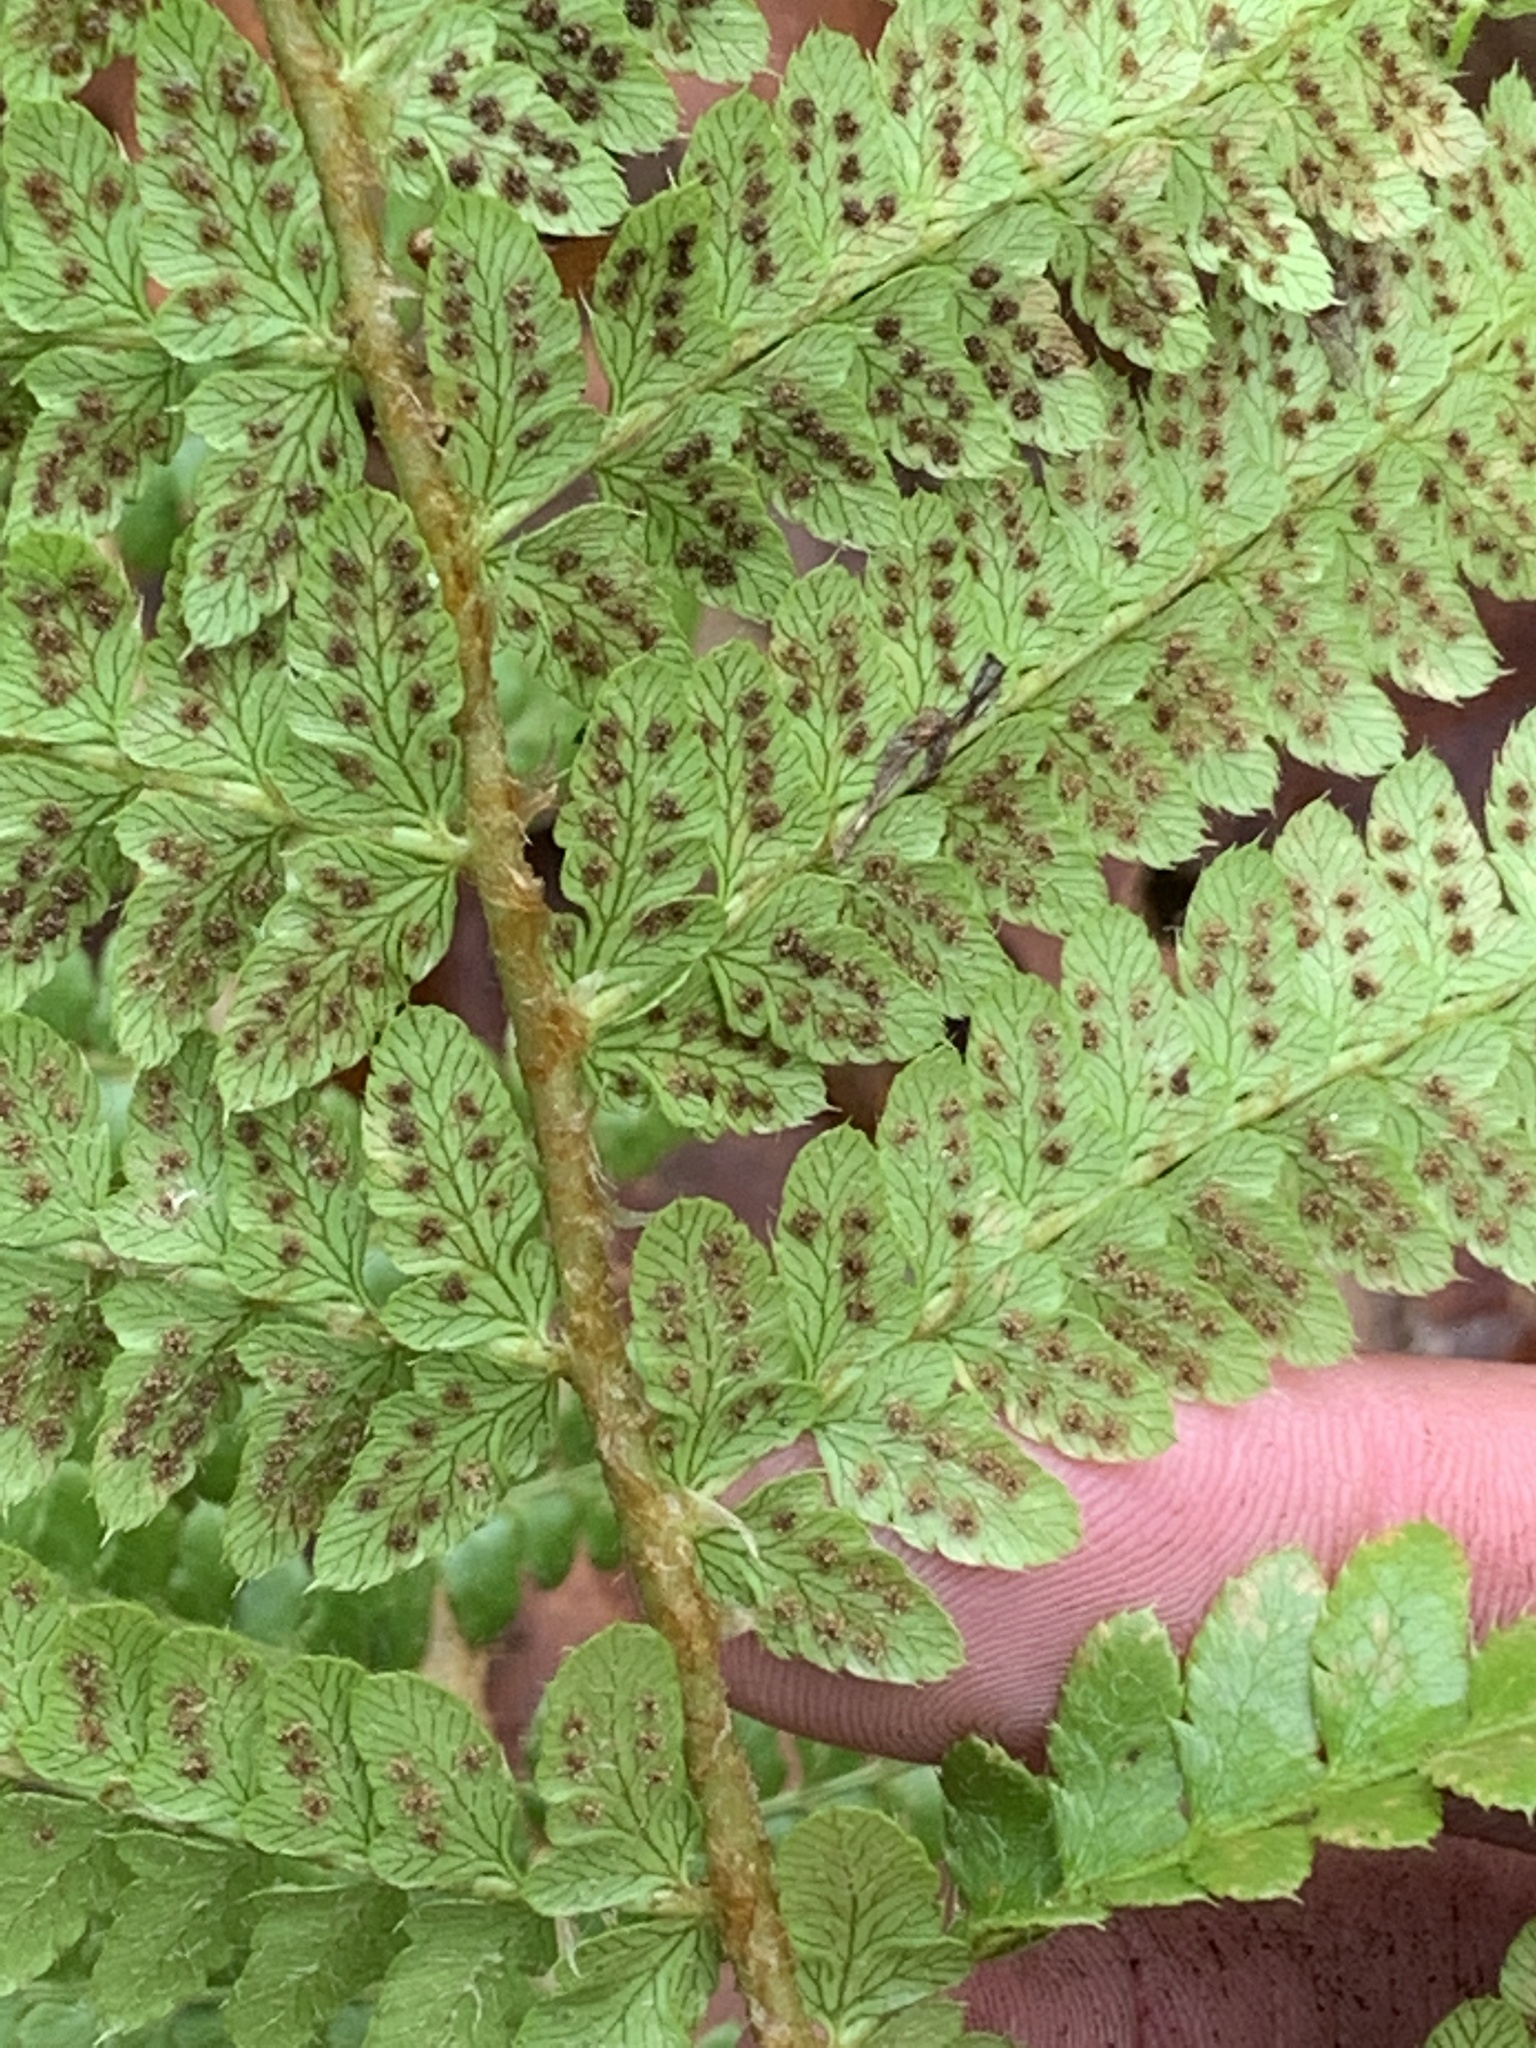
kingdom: Plantae
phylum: Tracheophyta
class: Polypodiopsida
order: Polypodiales
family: Dryopteridaceae
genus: Polystichum
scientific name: Polystichum braunii
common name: Braun's holly fern
